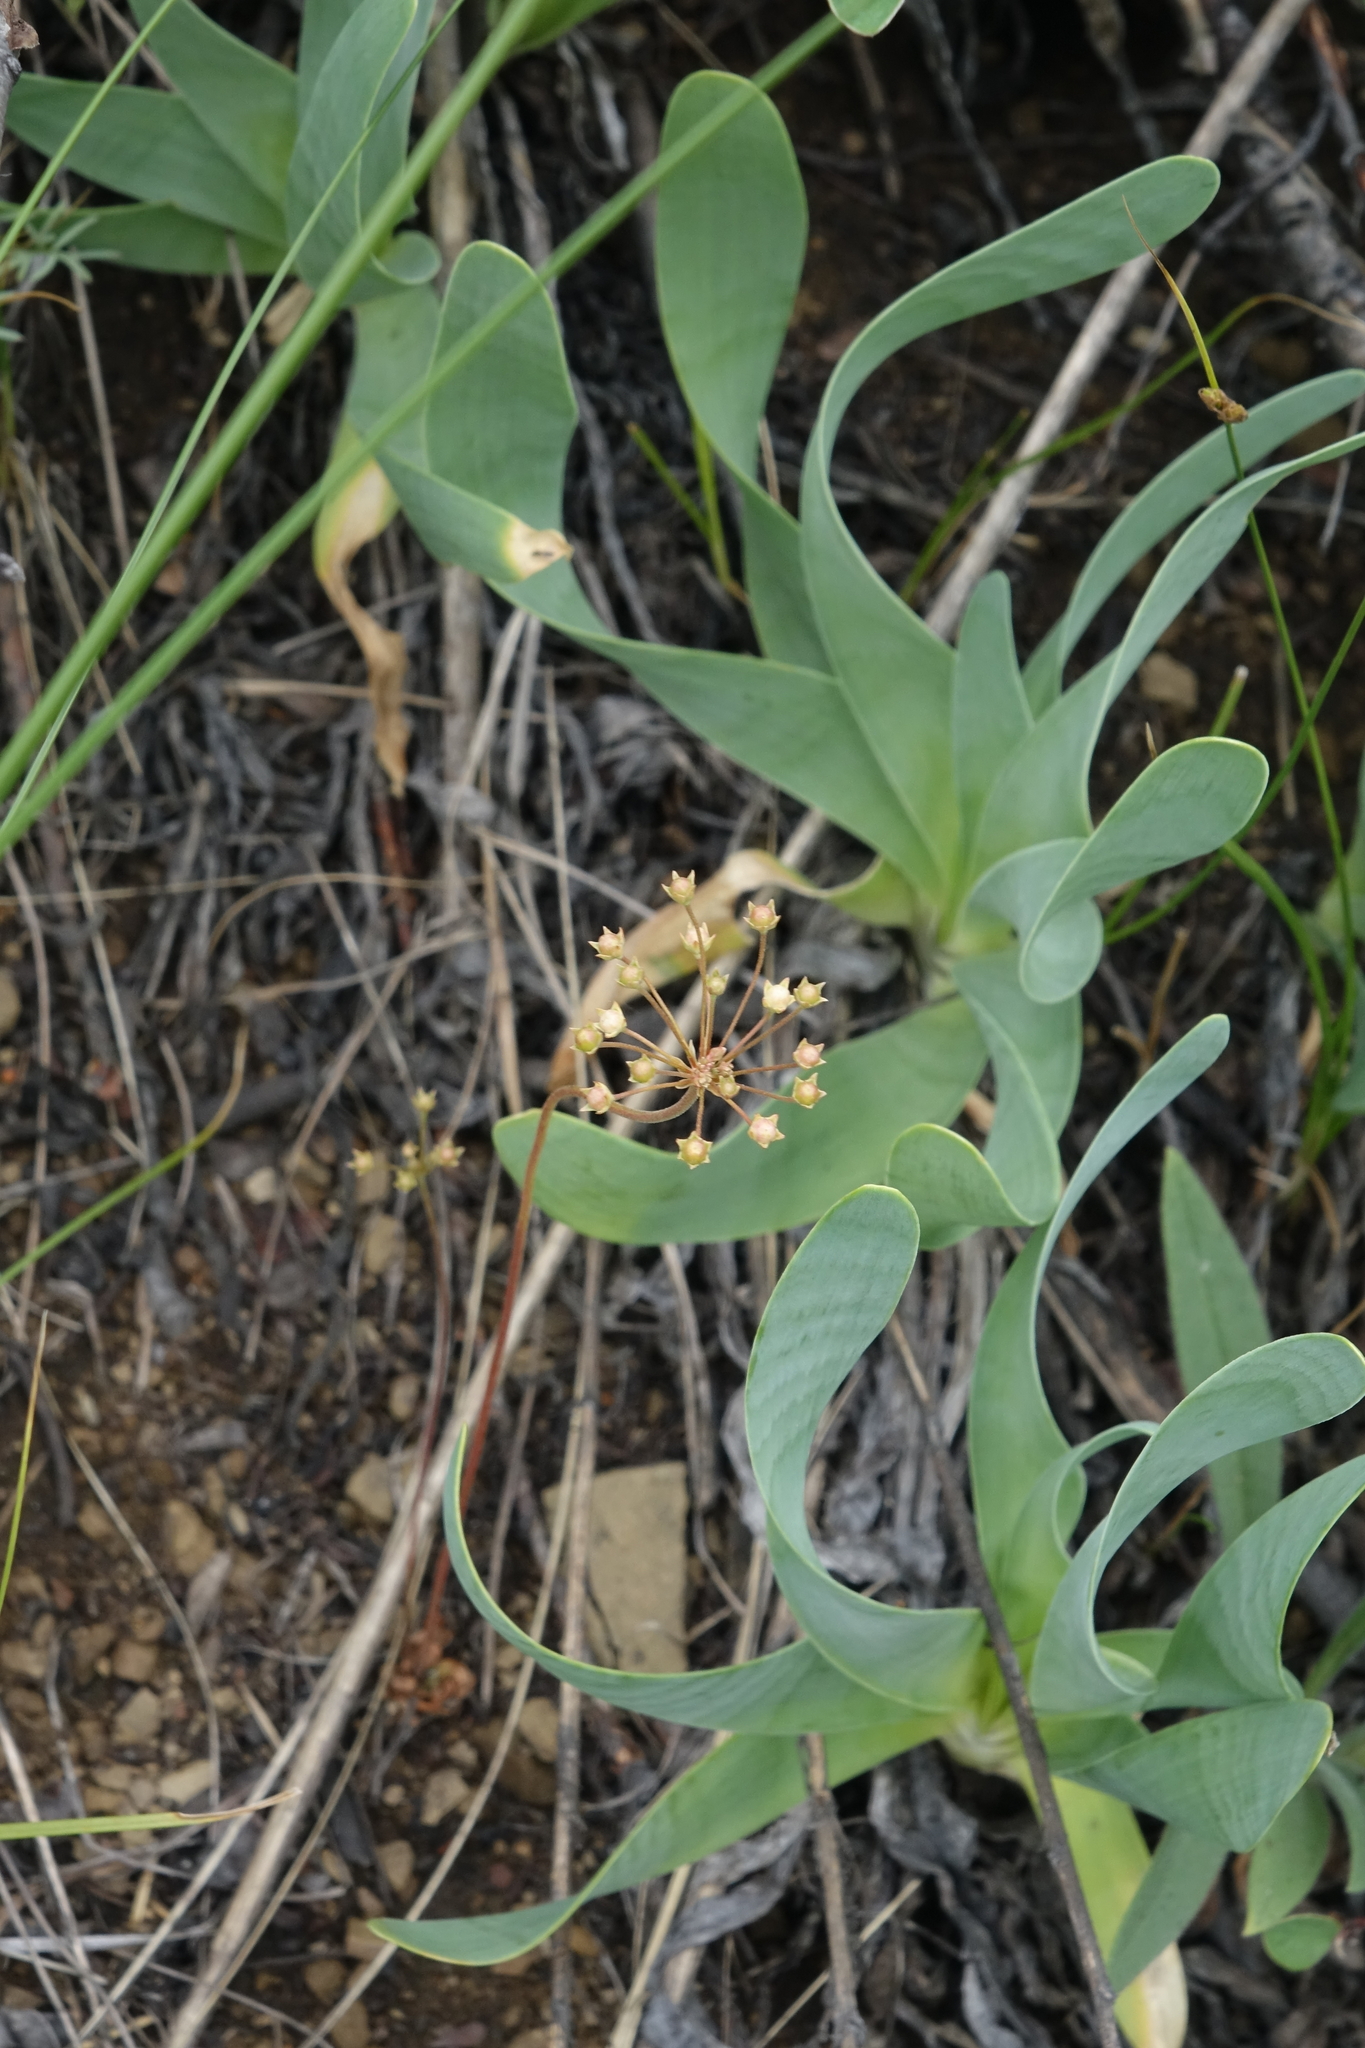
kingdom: Plantae
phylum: Tracheophyta
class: Magnoliopsida
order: Ericales
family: Primulaceae
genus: Androsace
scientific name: Androsace septentrionalis
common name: Hairy northern fairy-candelabra
